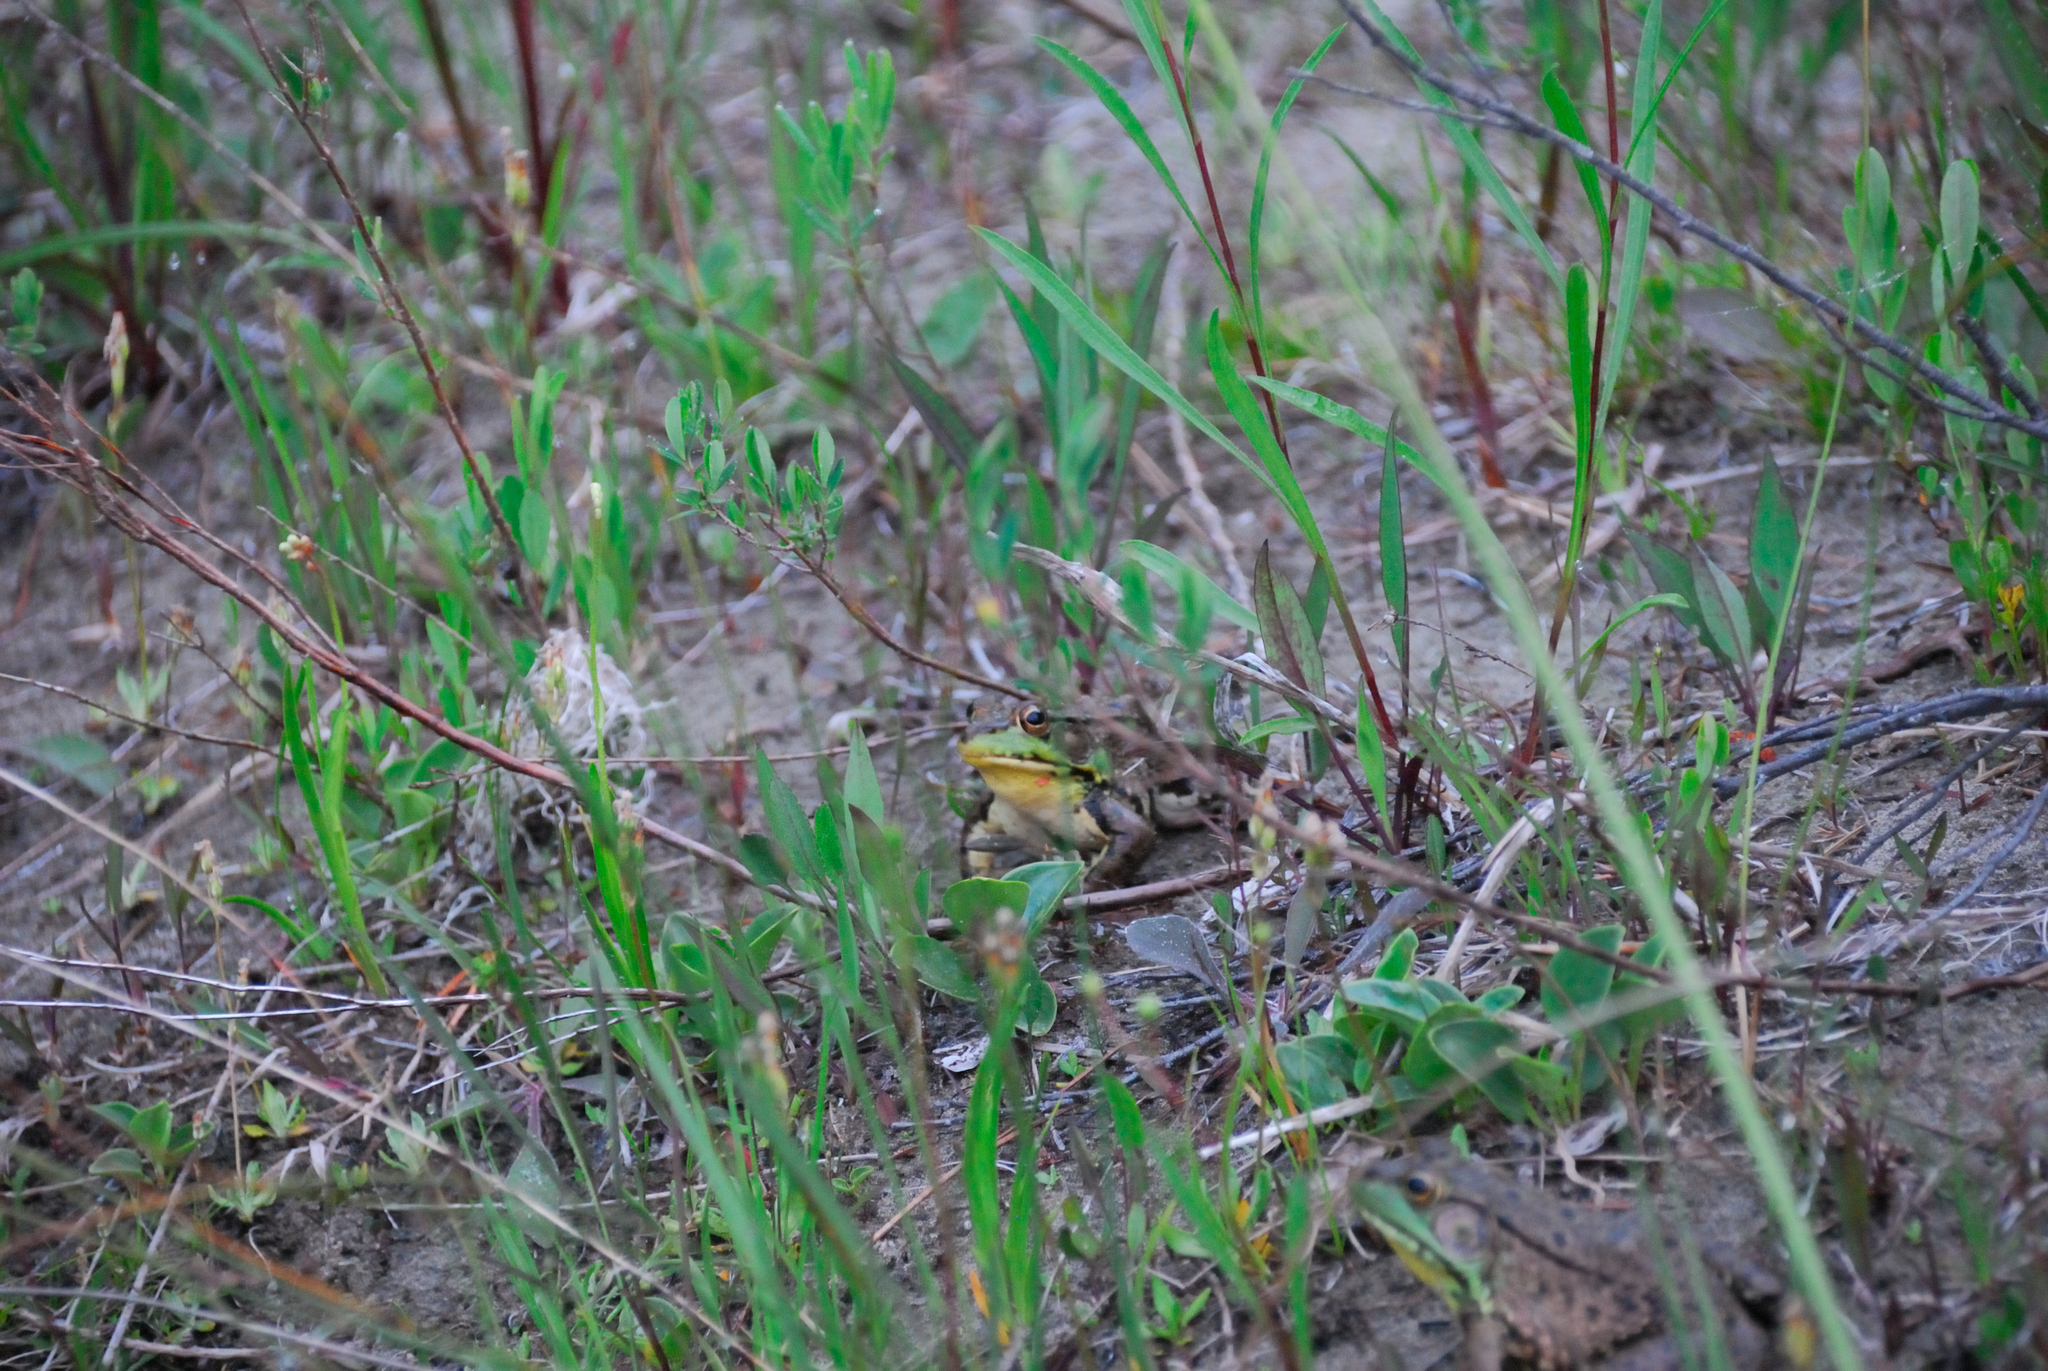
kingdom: Animalia
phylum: Chordata
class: Amphibia
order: Anura
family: Ranidae
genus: Lithobates
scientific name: Lithobates clamitans
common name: Green frog
